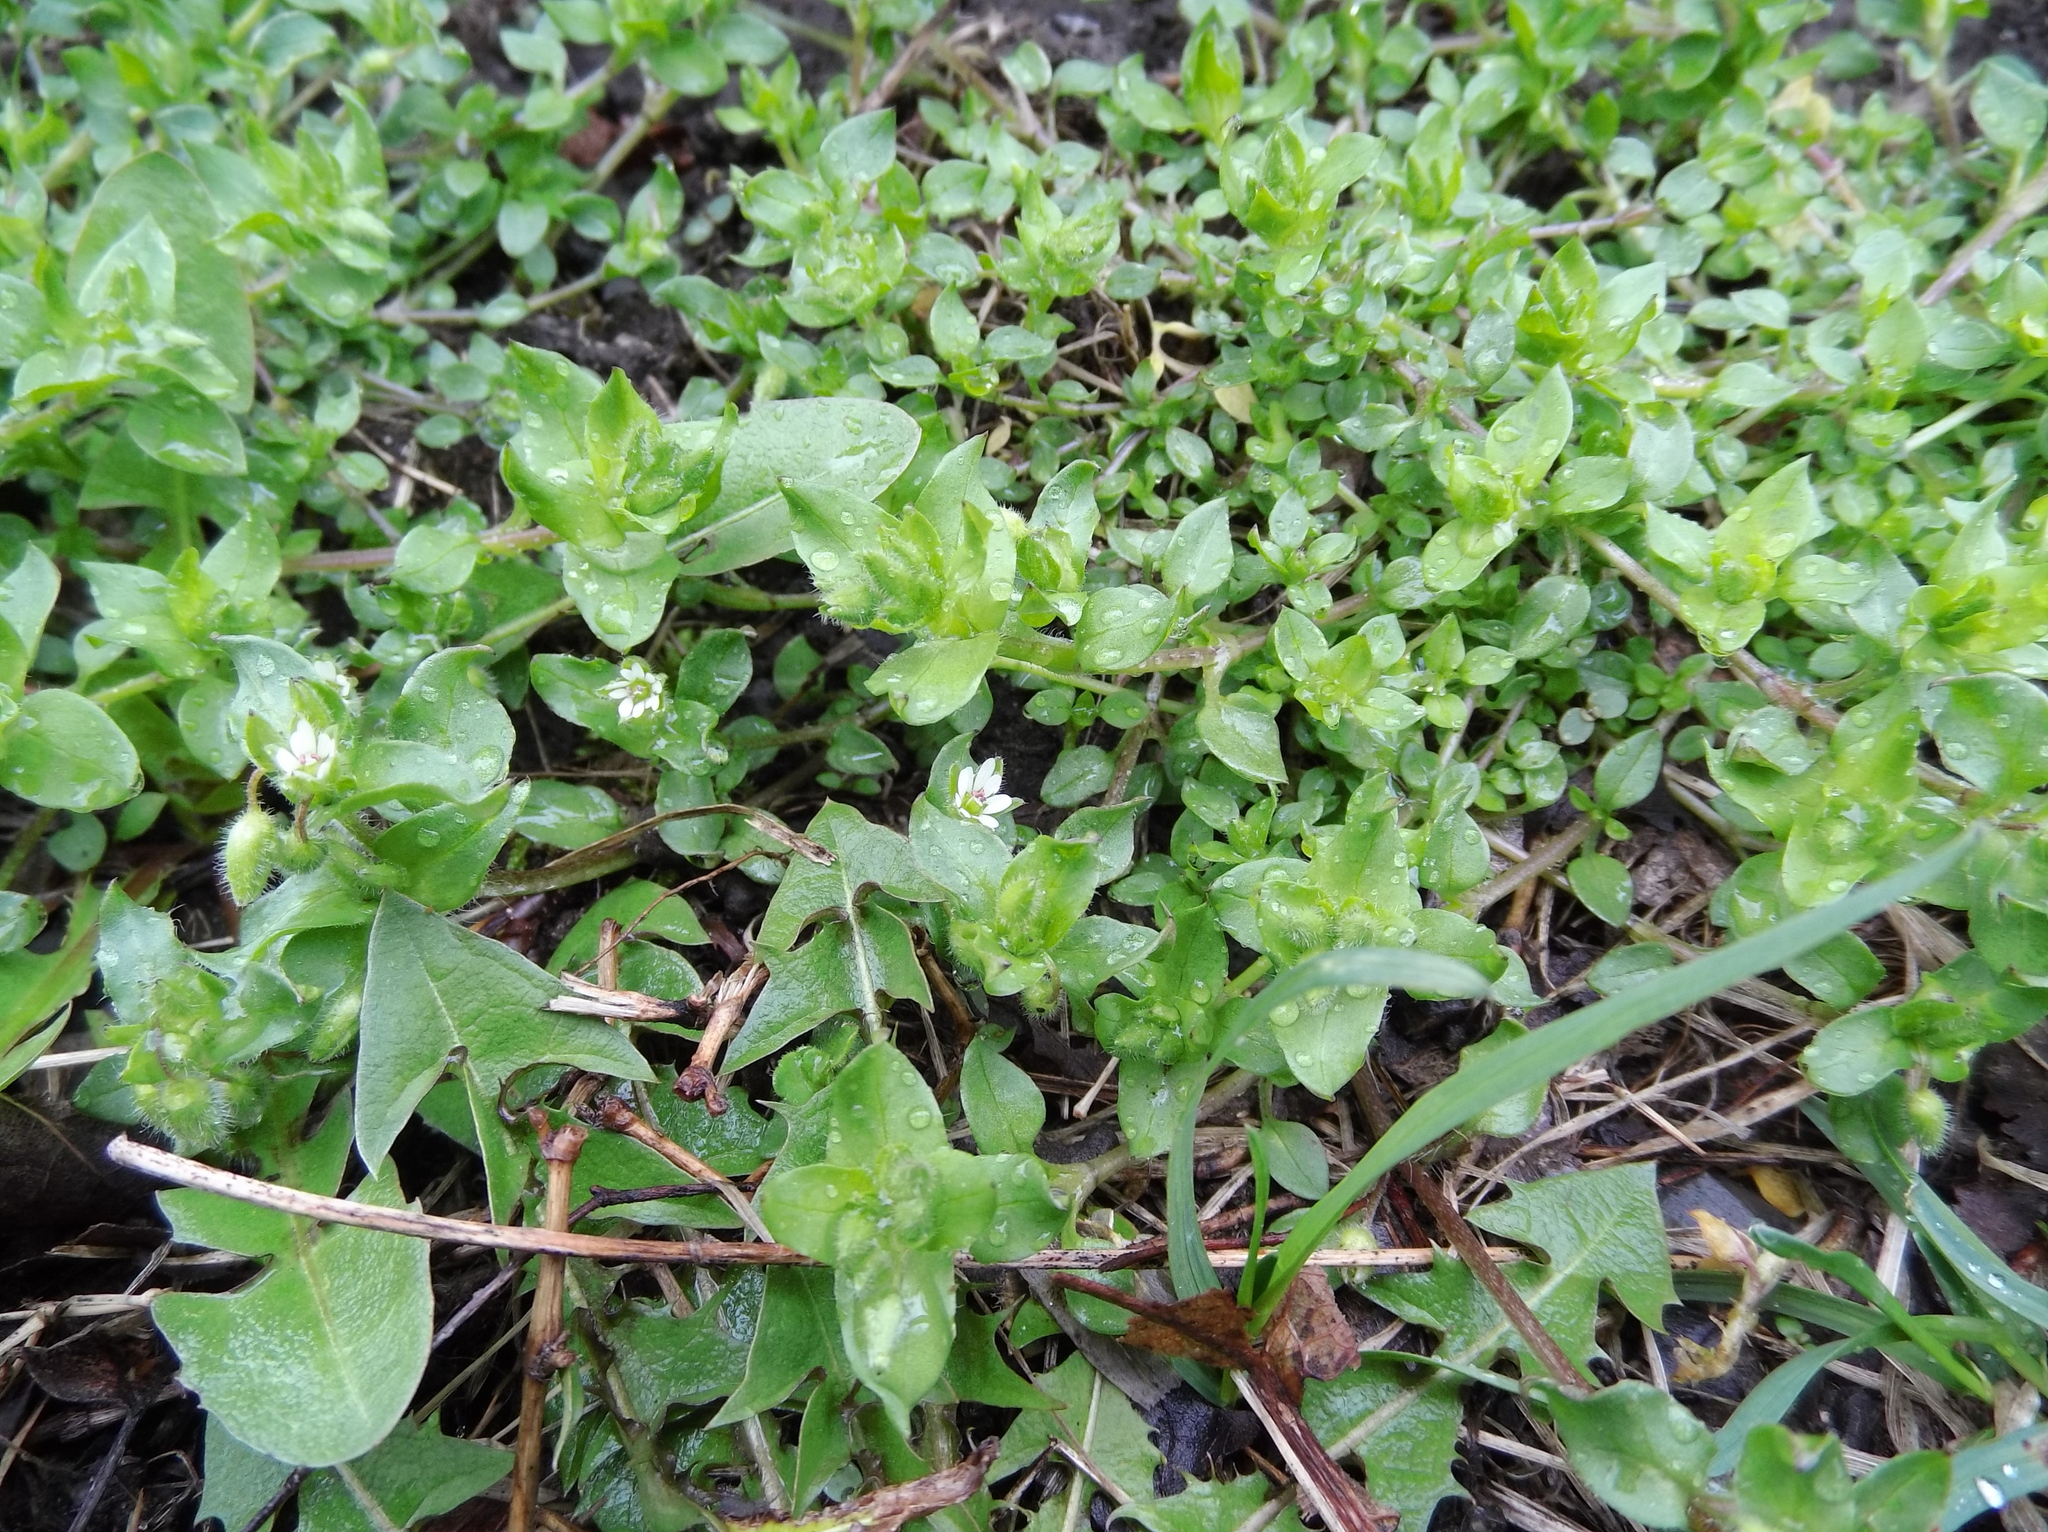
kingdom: Plantae
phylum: Tracheophyta
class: Magnoliopsida
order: Caryophyllales
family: Caryophyllaceae
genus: Stellaria
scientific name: Stellaria media
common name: Common chickweed
